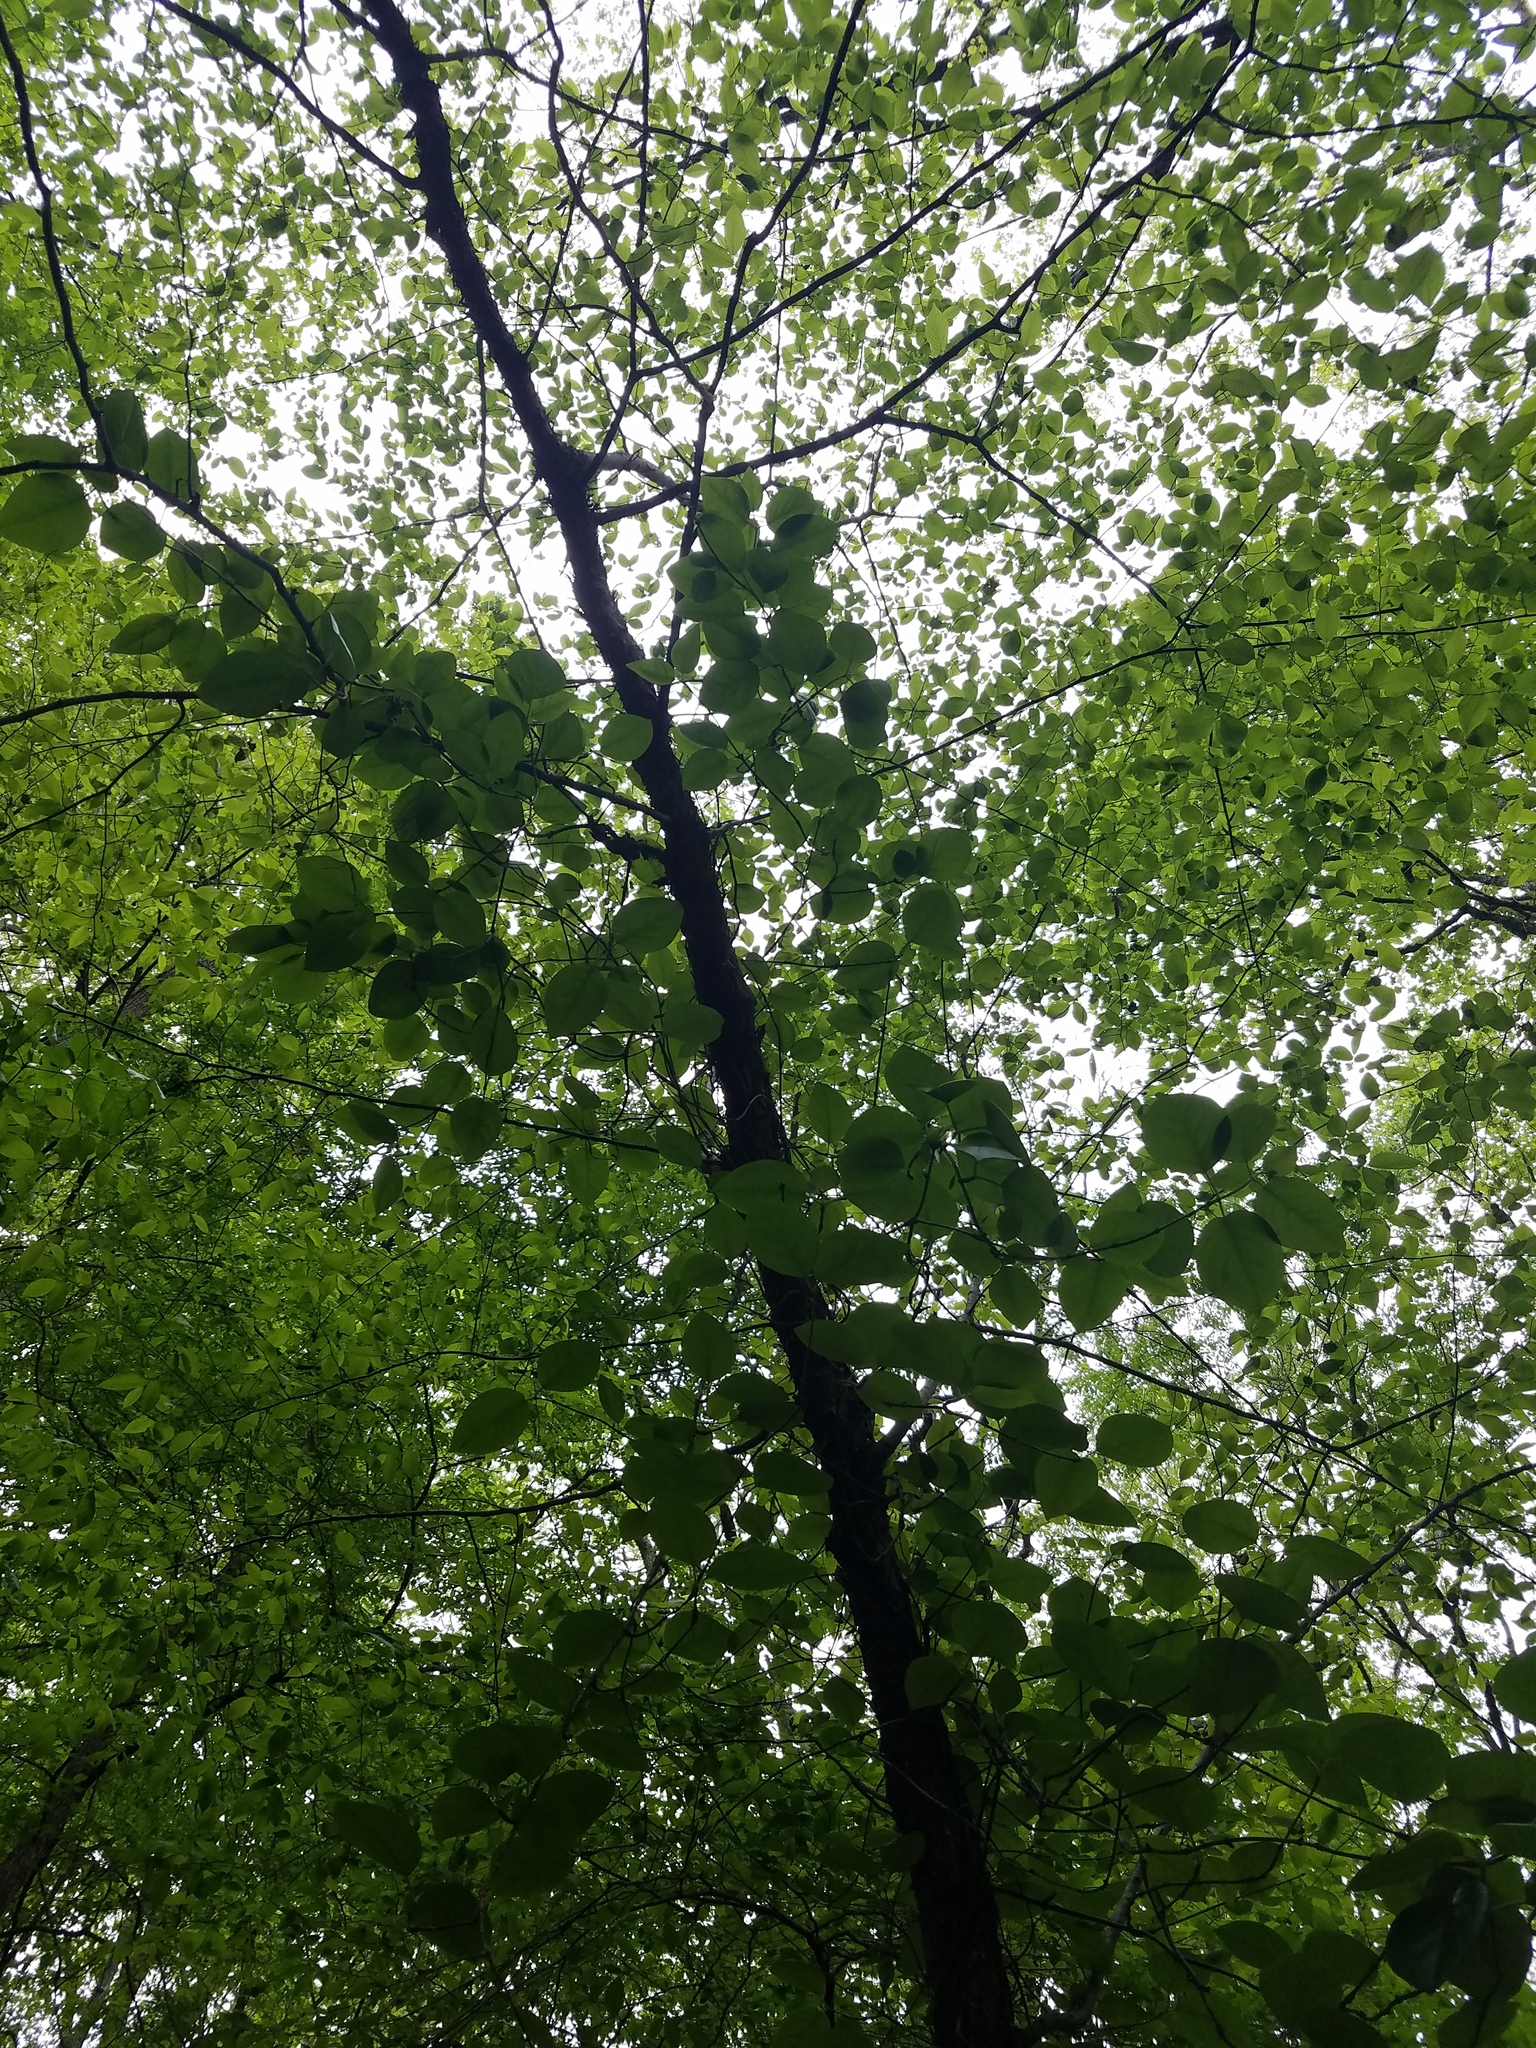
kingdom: Plantae
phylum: Tracheophyta
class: Magnoliopsida
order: Fagales
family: Betulaceae
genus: Ostrya
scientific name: Ostrya virginiana
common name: Ironwood
